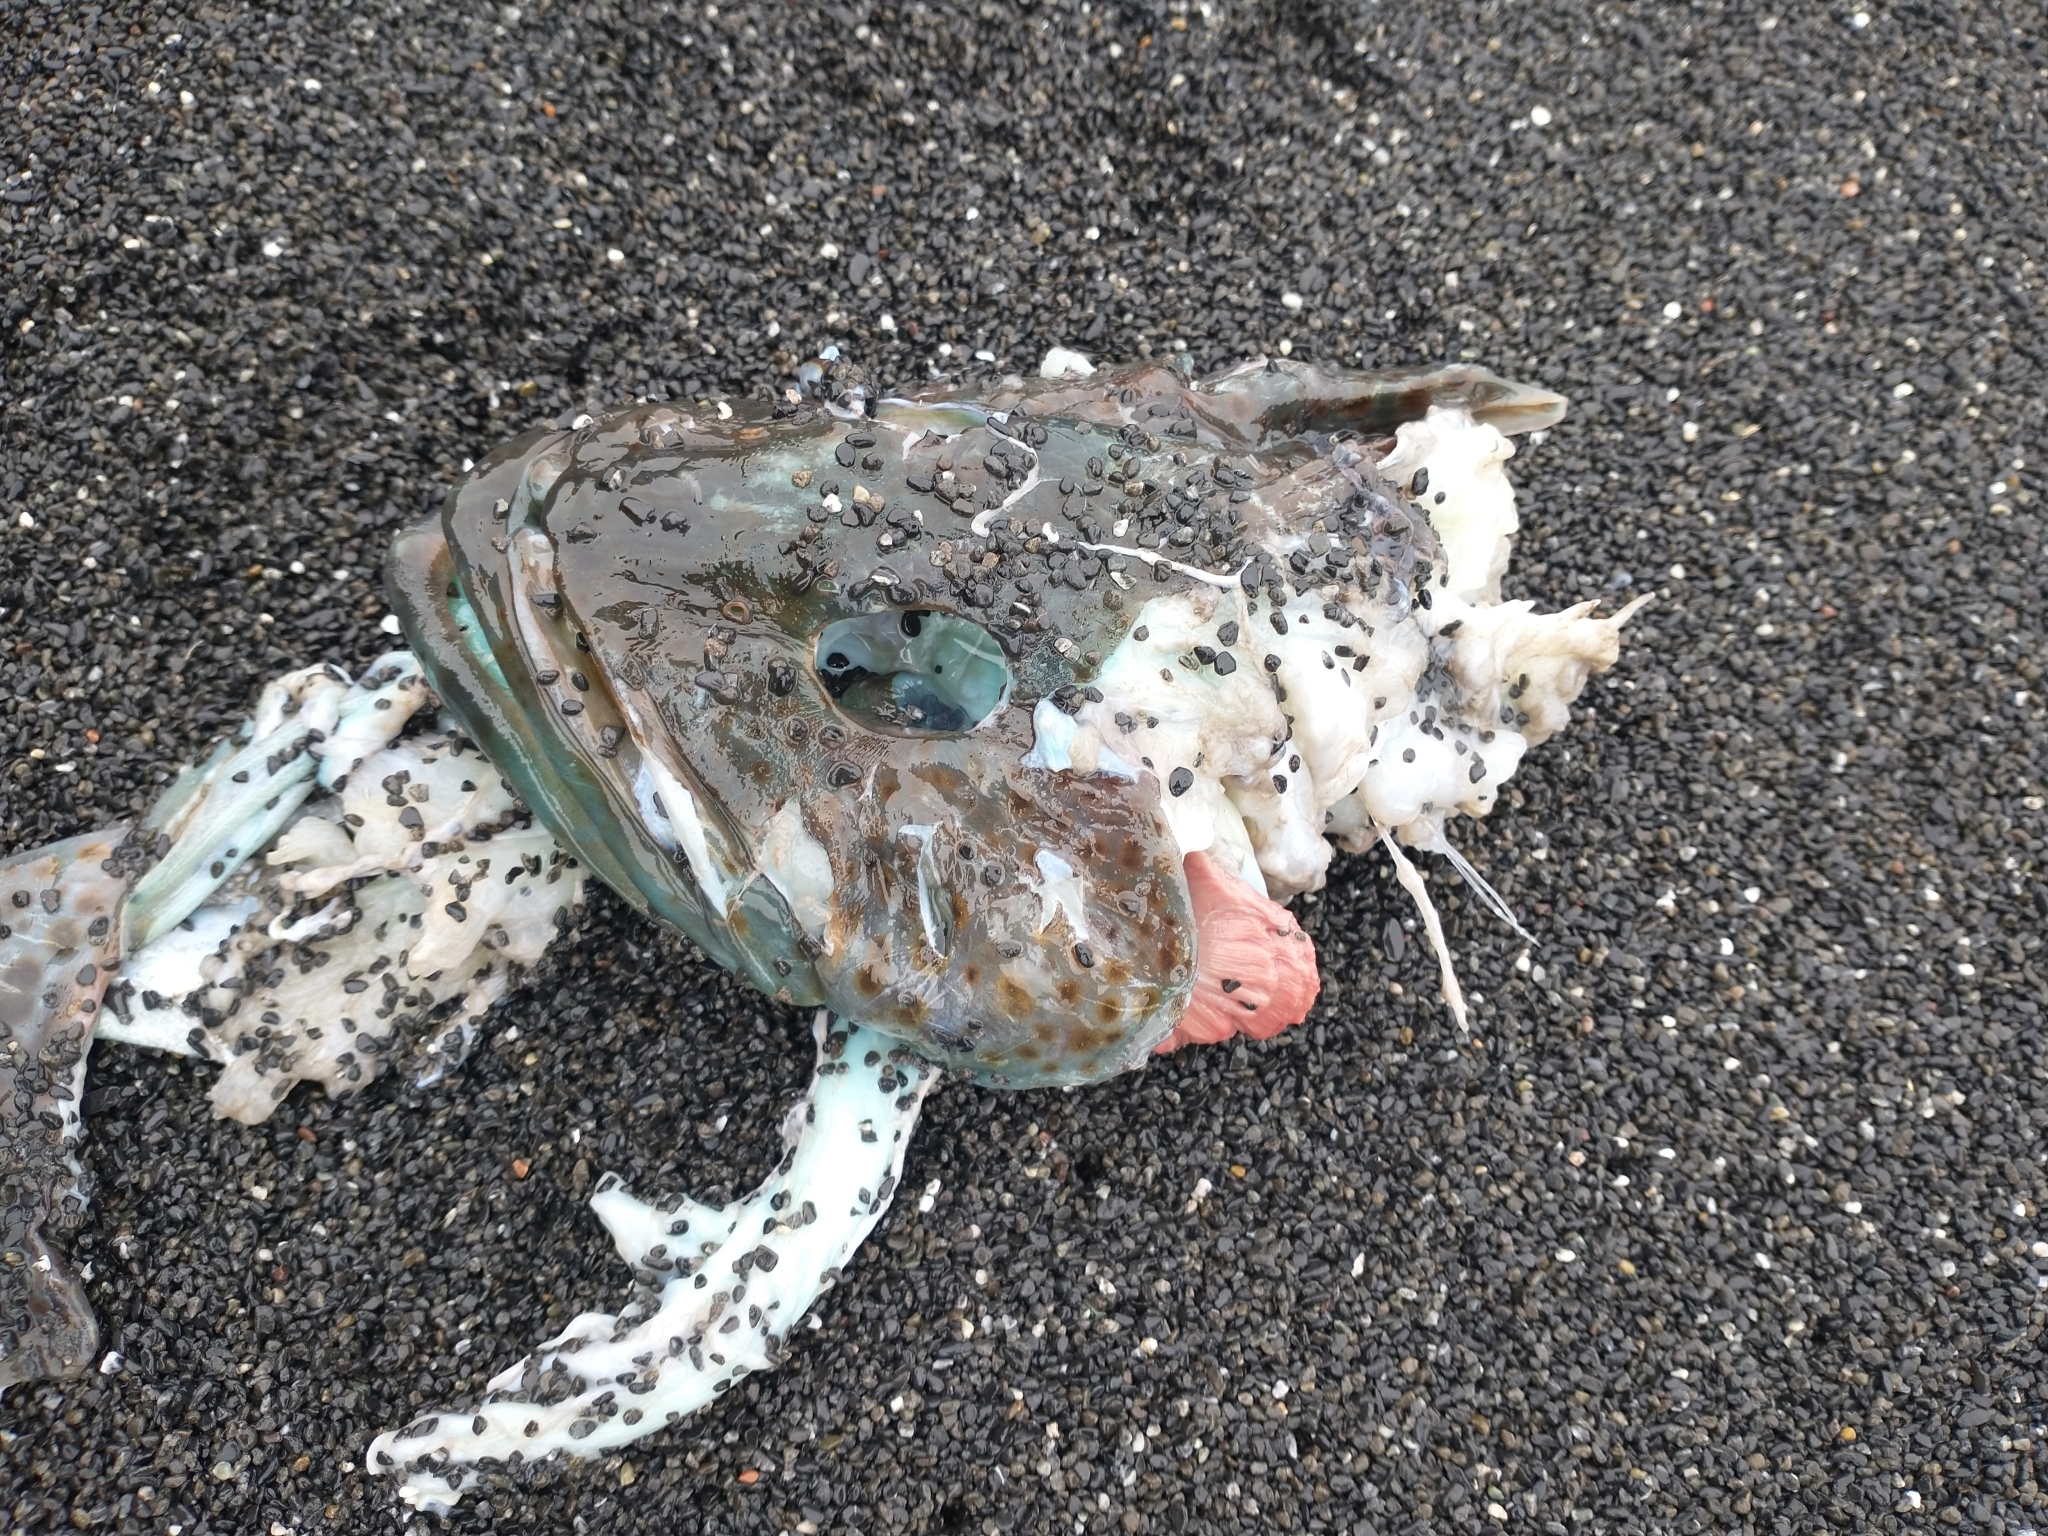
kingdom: Animalia
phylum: Chordata
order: Scorpaeniformes
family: Hexagrammidae
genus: Ophiodon
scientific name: Ophiodon elongatus
